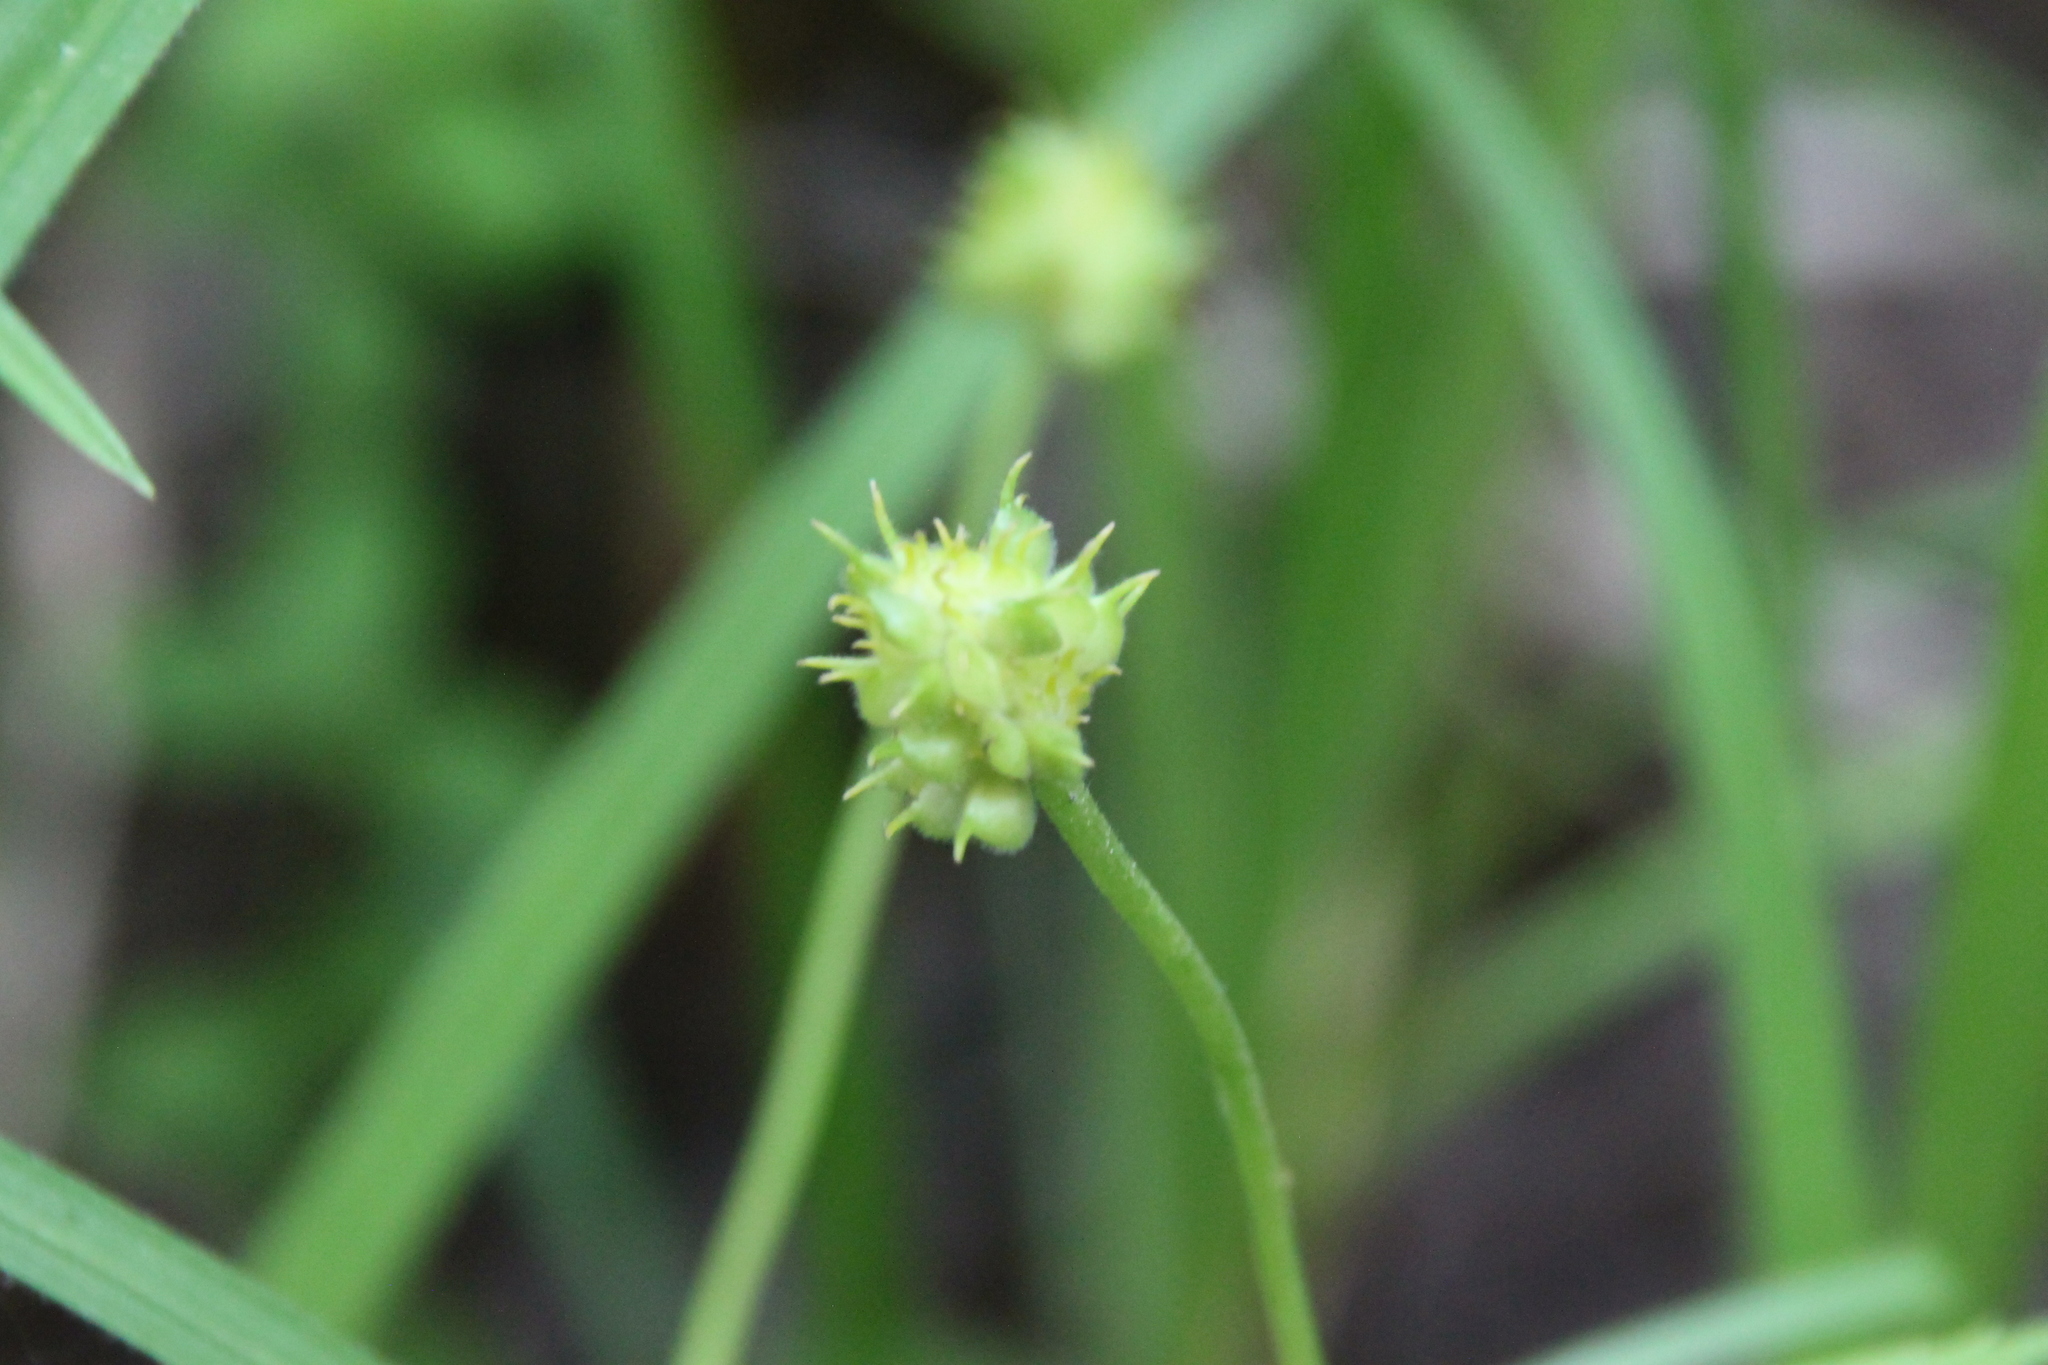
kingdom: Plantae
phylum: Tracheophyta
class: Magnoliopsida
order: Ranunculales
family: Ranunculaceae
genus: Ranunculus
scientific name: Ranunculus cassubicus
